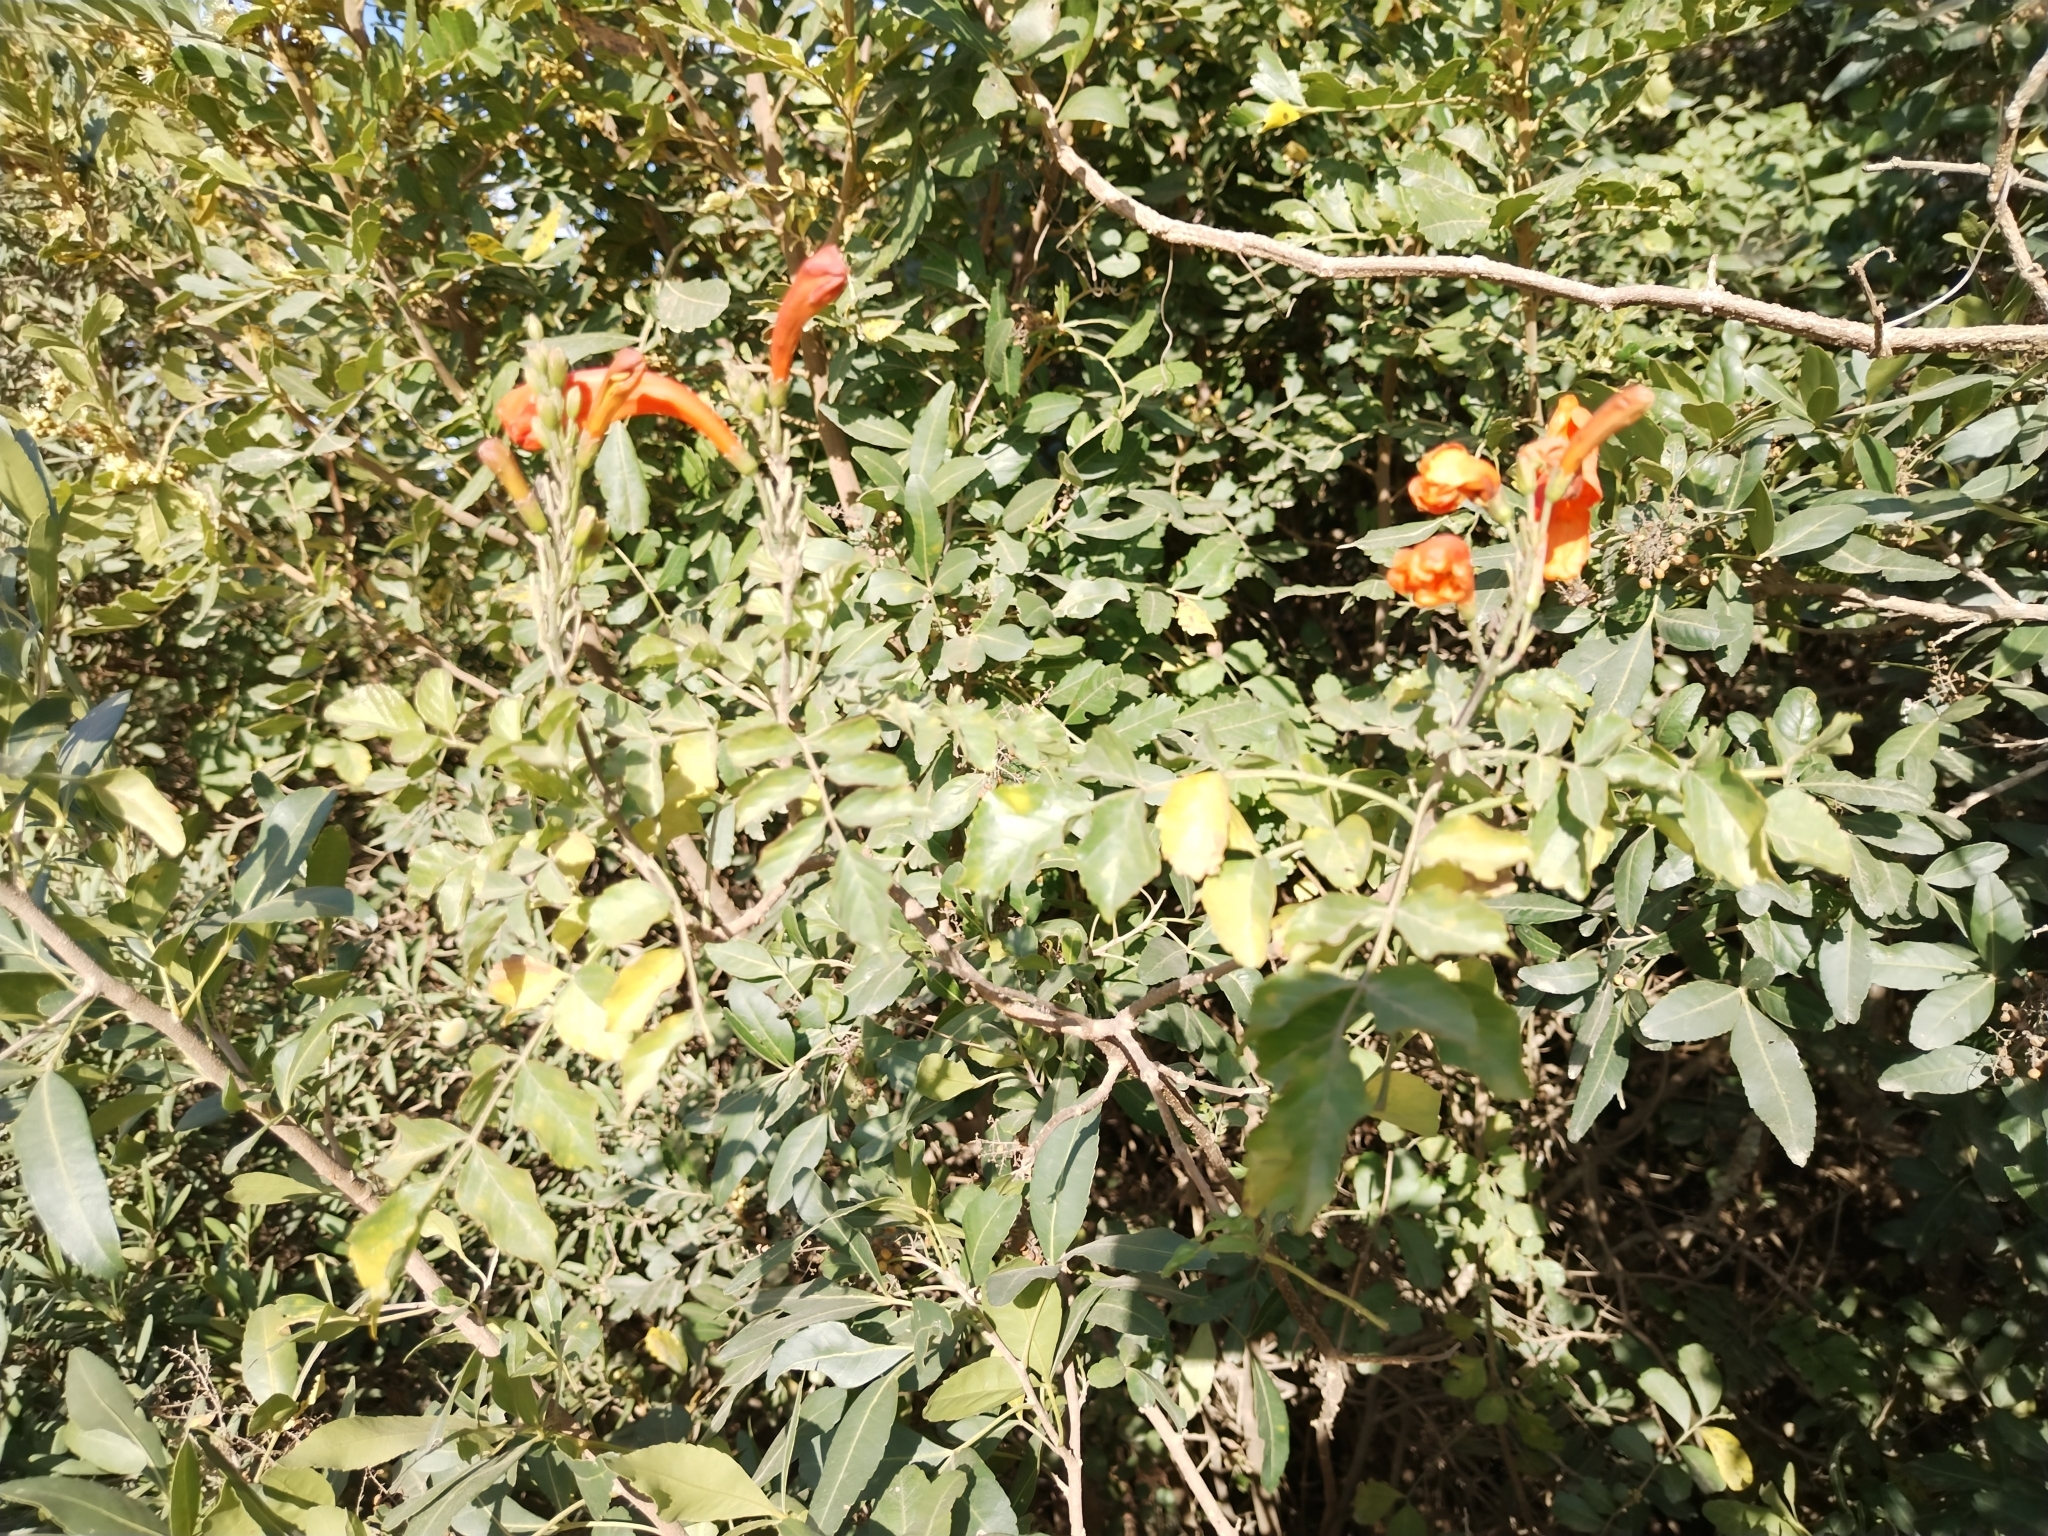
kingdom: Plantae
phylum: Tracheophyta
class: Magnoliopsida
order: Lamiales
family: Bignoniaceae
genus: Tecomaria
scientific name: Tecomaria capensis
